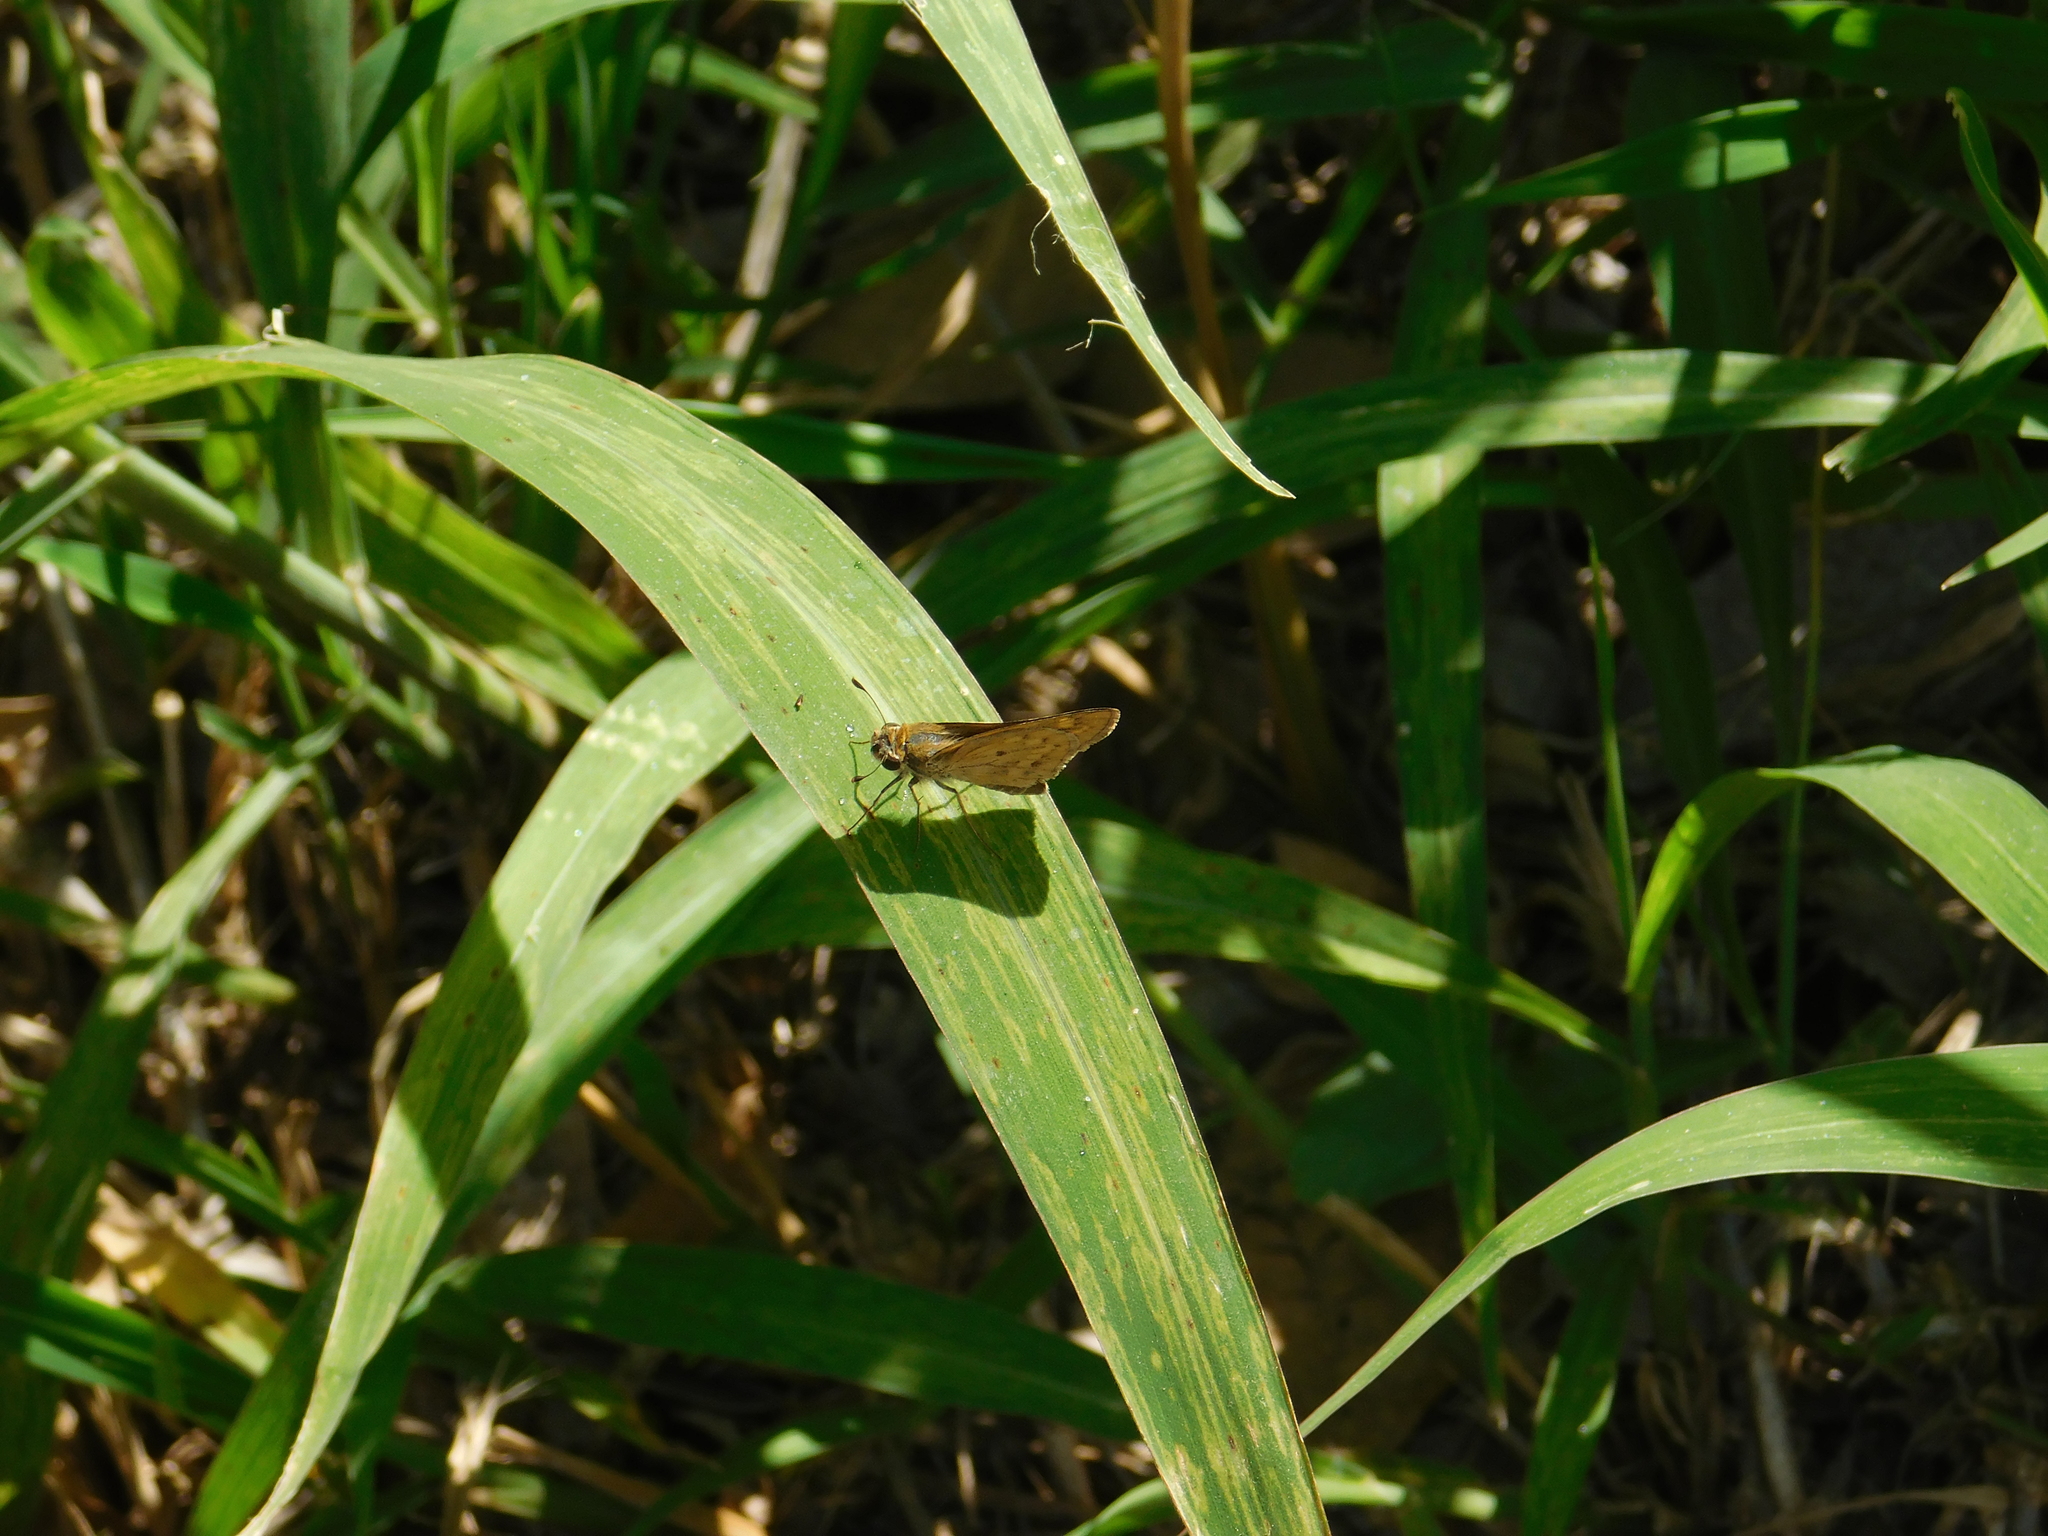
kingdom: Animalia
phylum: Arthropoda
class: Insecta
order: Lepidoptera
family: Hesperiidae
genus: Hylephila
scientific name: Hylephila phyleus
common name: Fiery skipper
